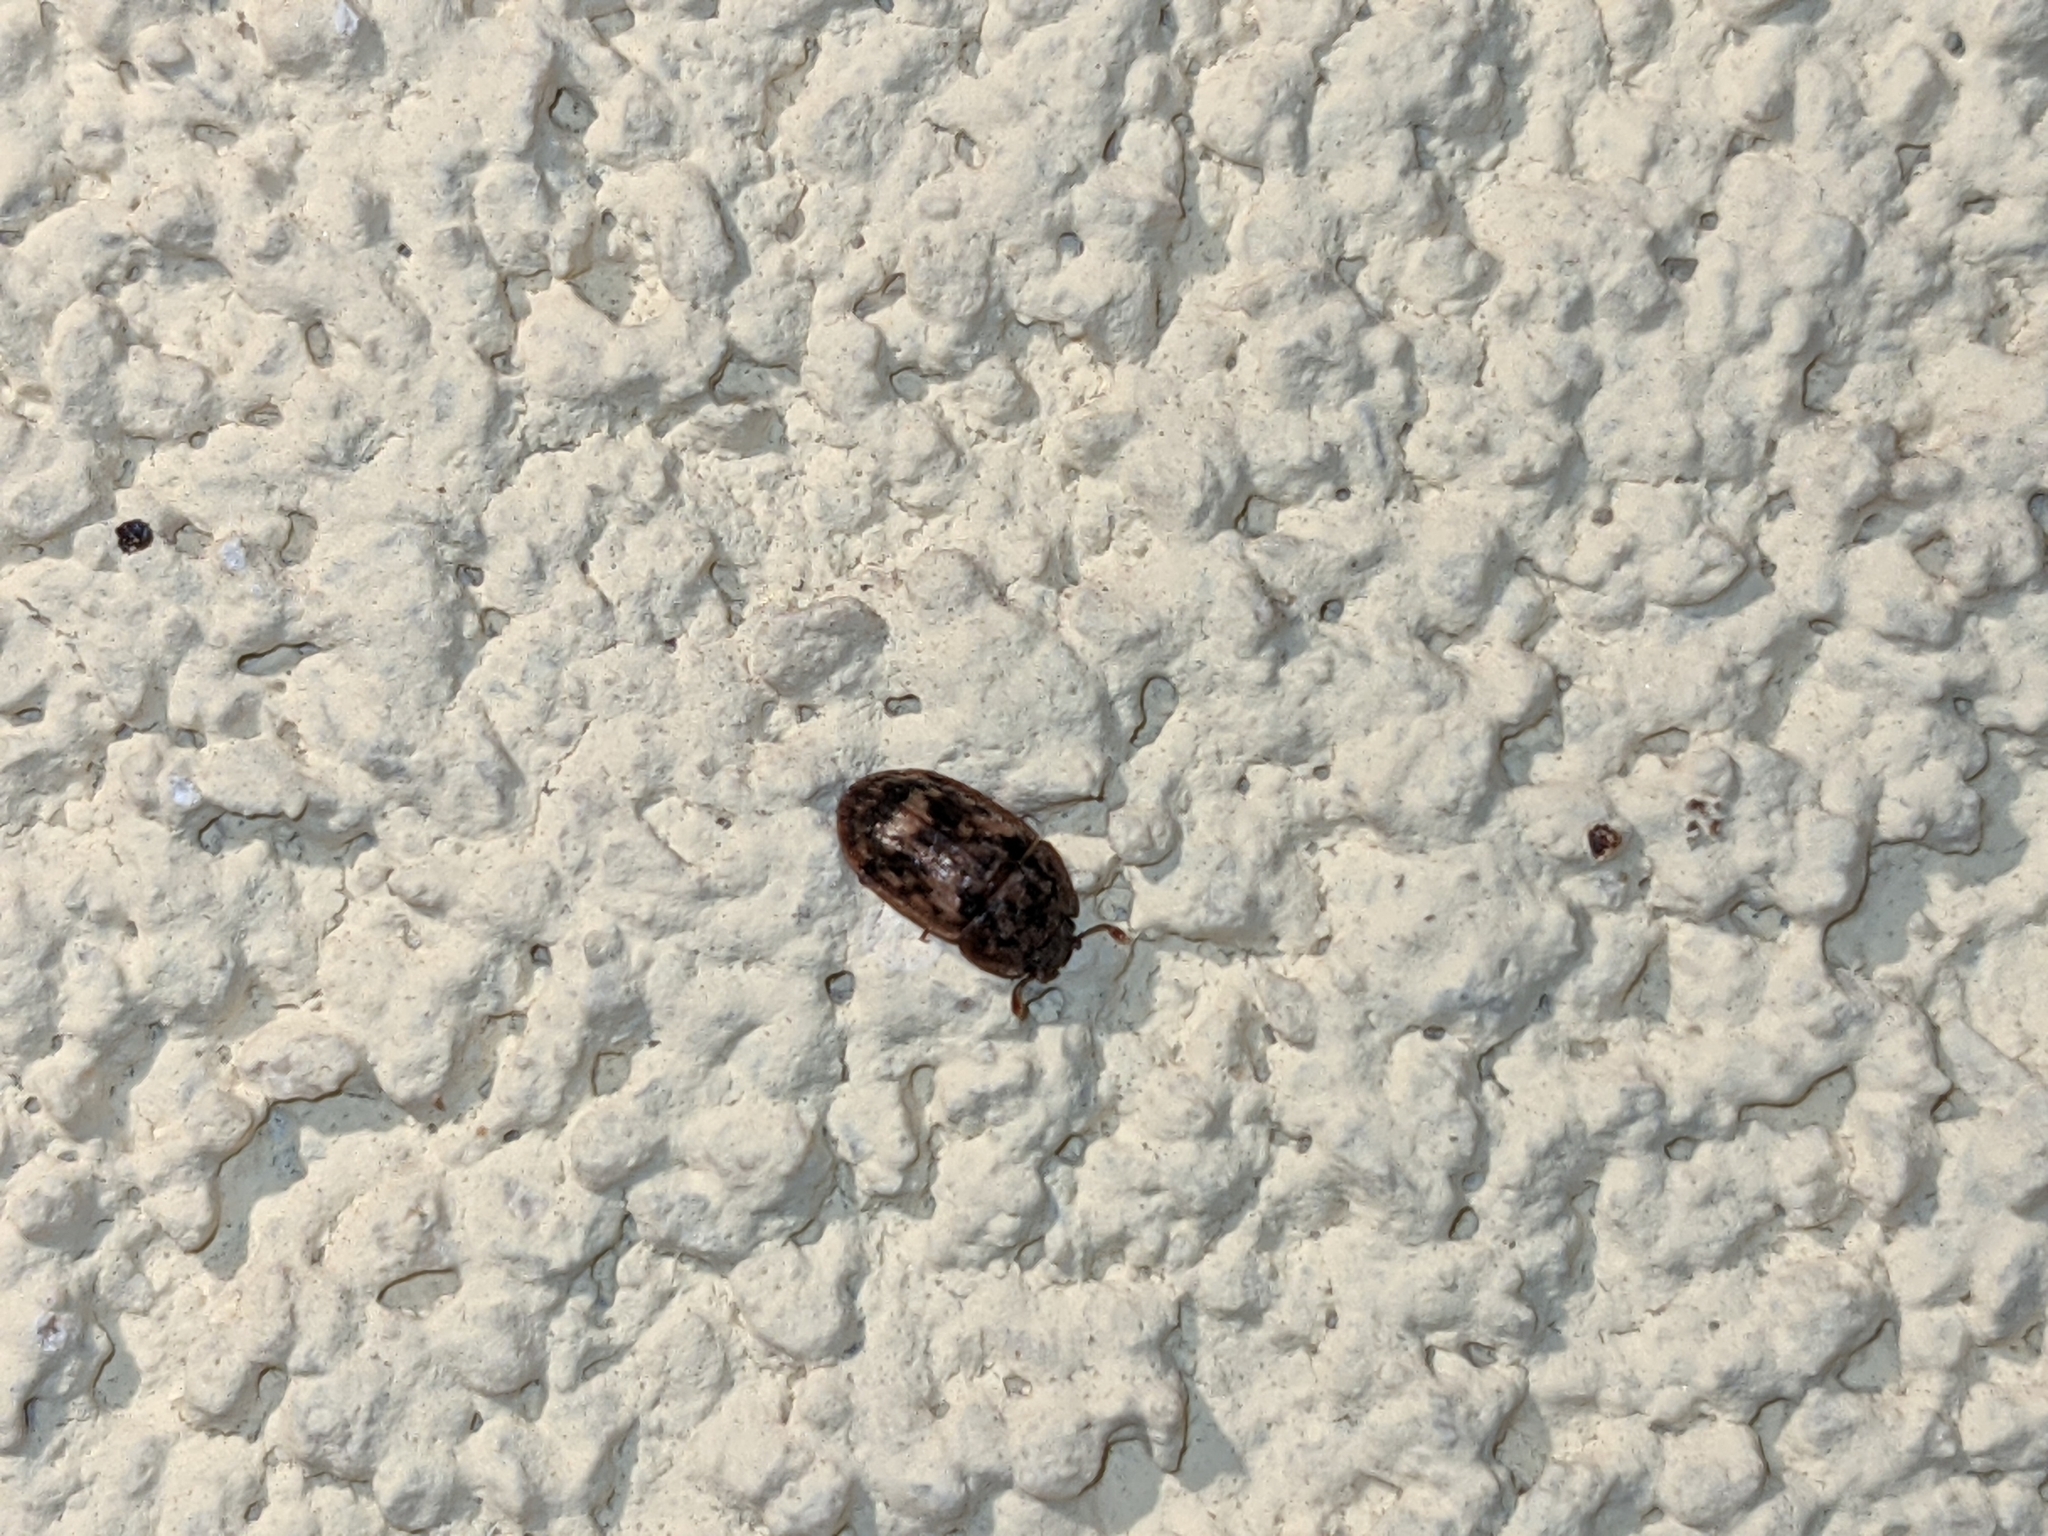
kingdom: Animalia
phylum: Arthropoda
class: Insecta
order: Coleoptera
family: Nitidulidae
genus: Soronia
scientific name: Soronia grisea
